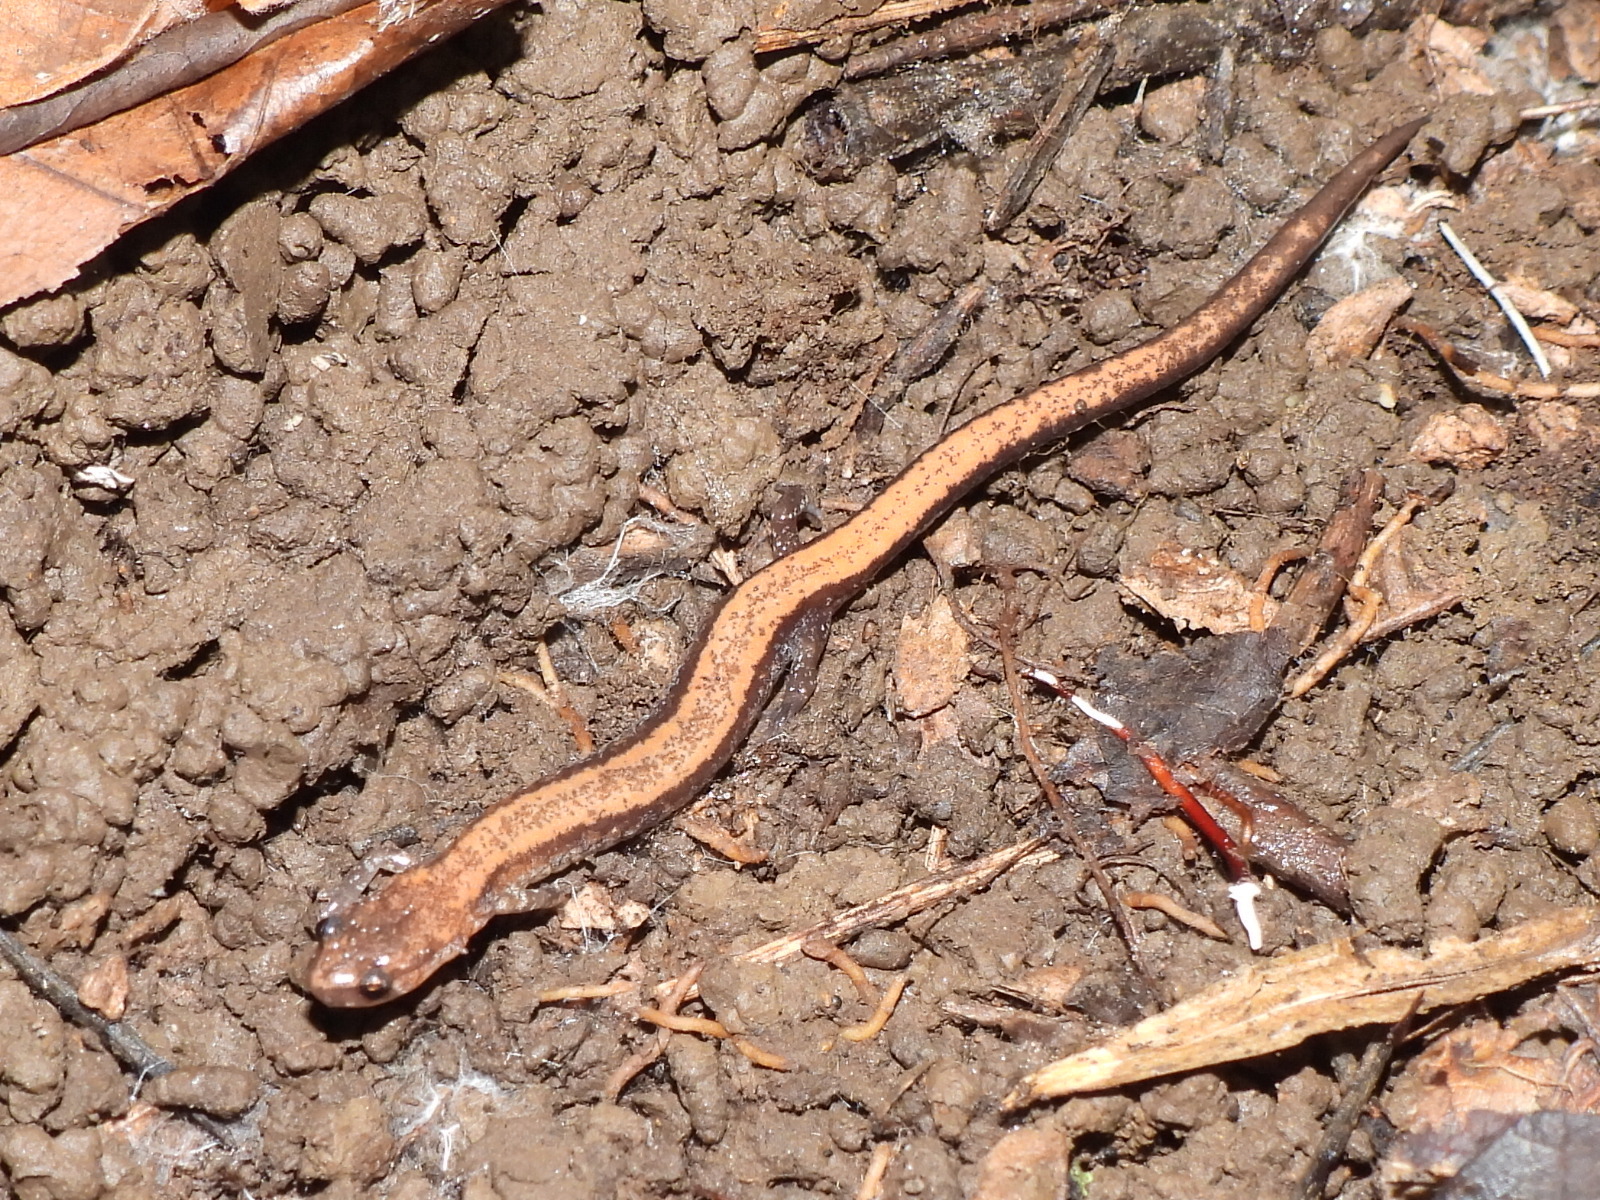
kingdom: Animalia
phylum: Chordata
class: Amphibia
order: Caudata
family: Plethodontidae
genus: Plethodon
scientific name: Plethodon cinereus
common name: Redback salamander
